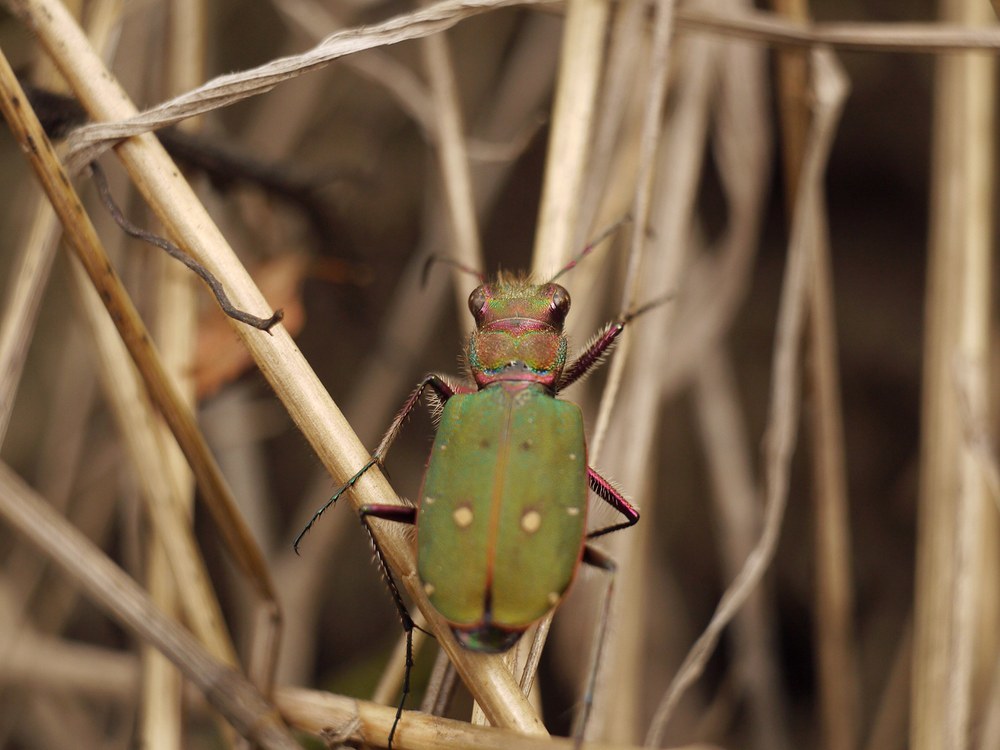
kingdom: Animalia
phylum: Arthropoda
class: Insecta
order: Coleoptera
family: Carabidae
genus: Cicindela
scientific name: Cicindela campestris
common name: Common tiger beetle
